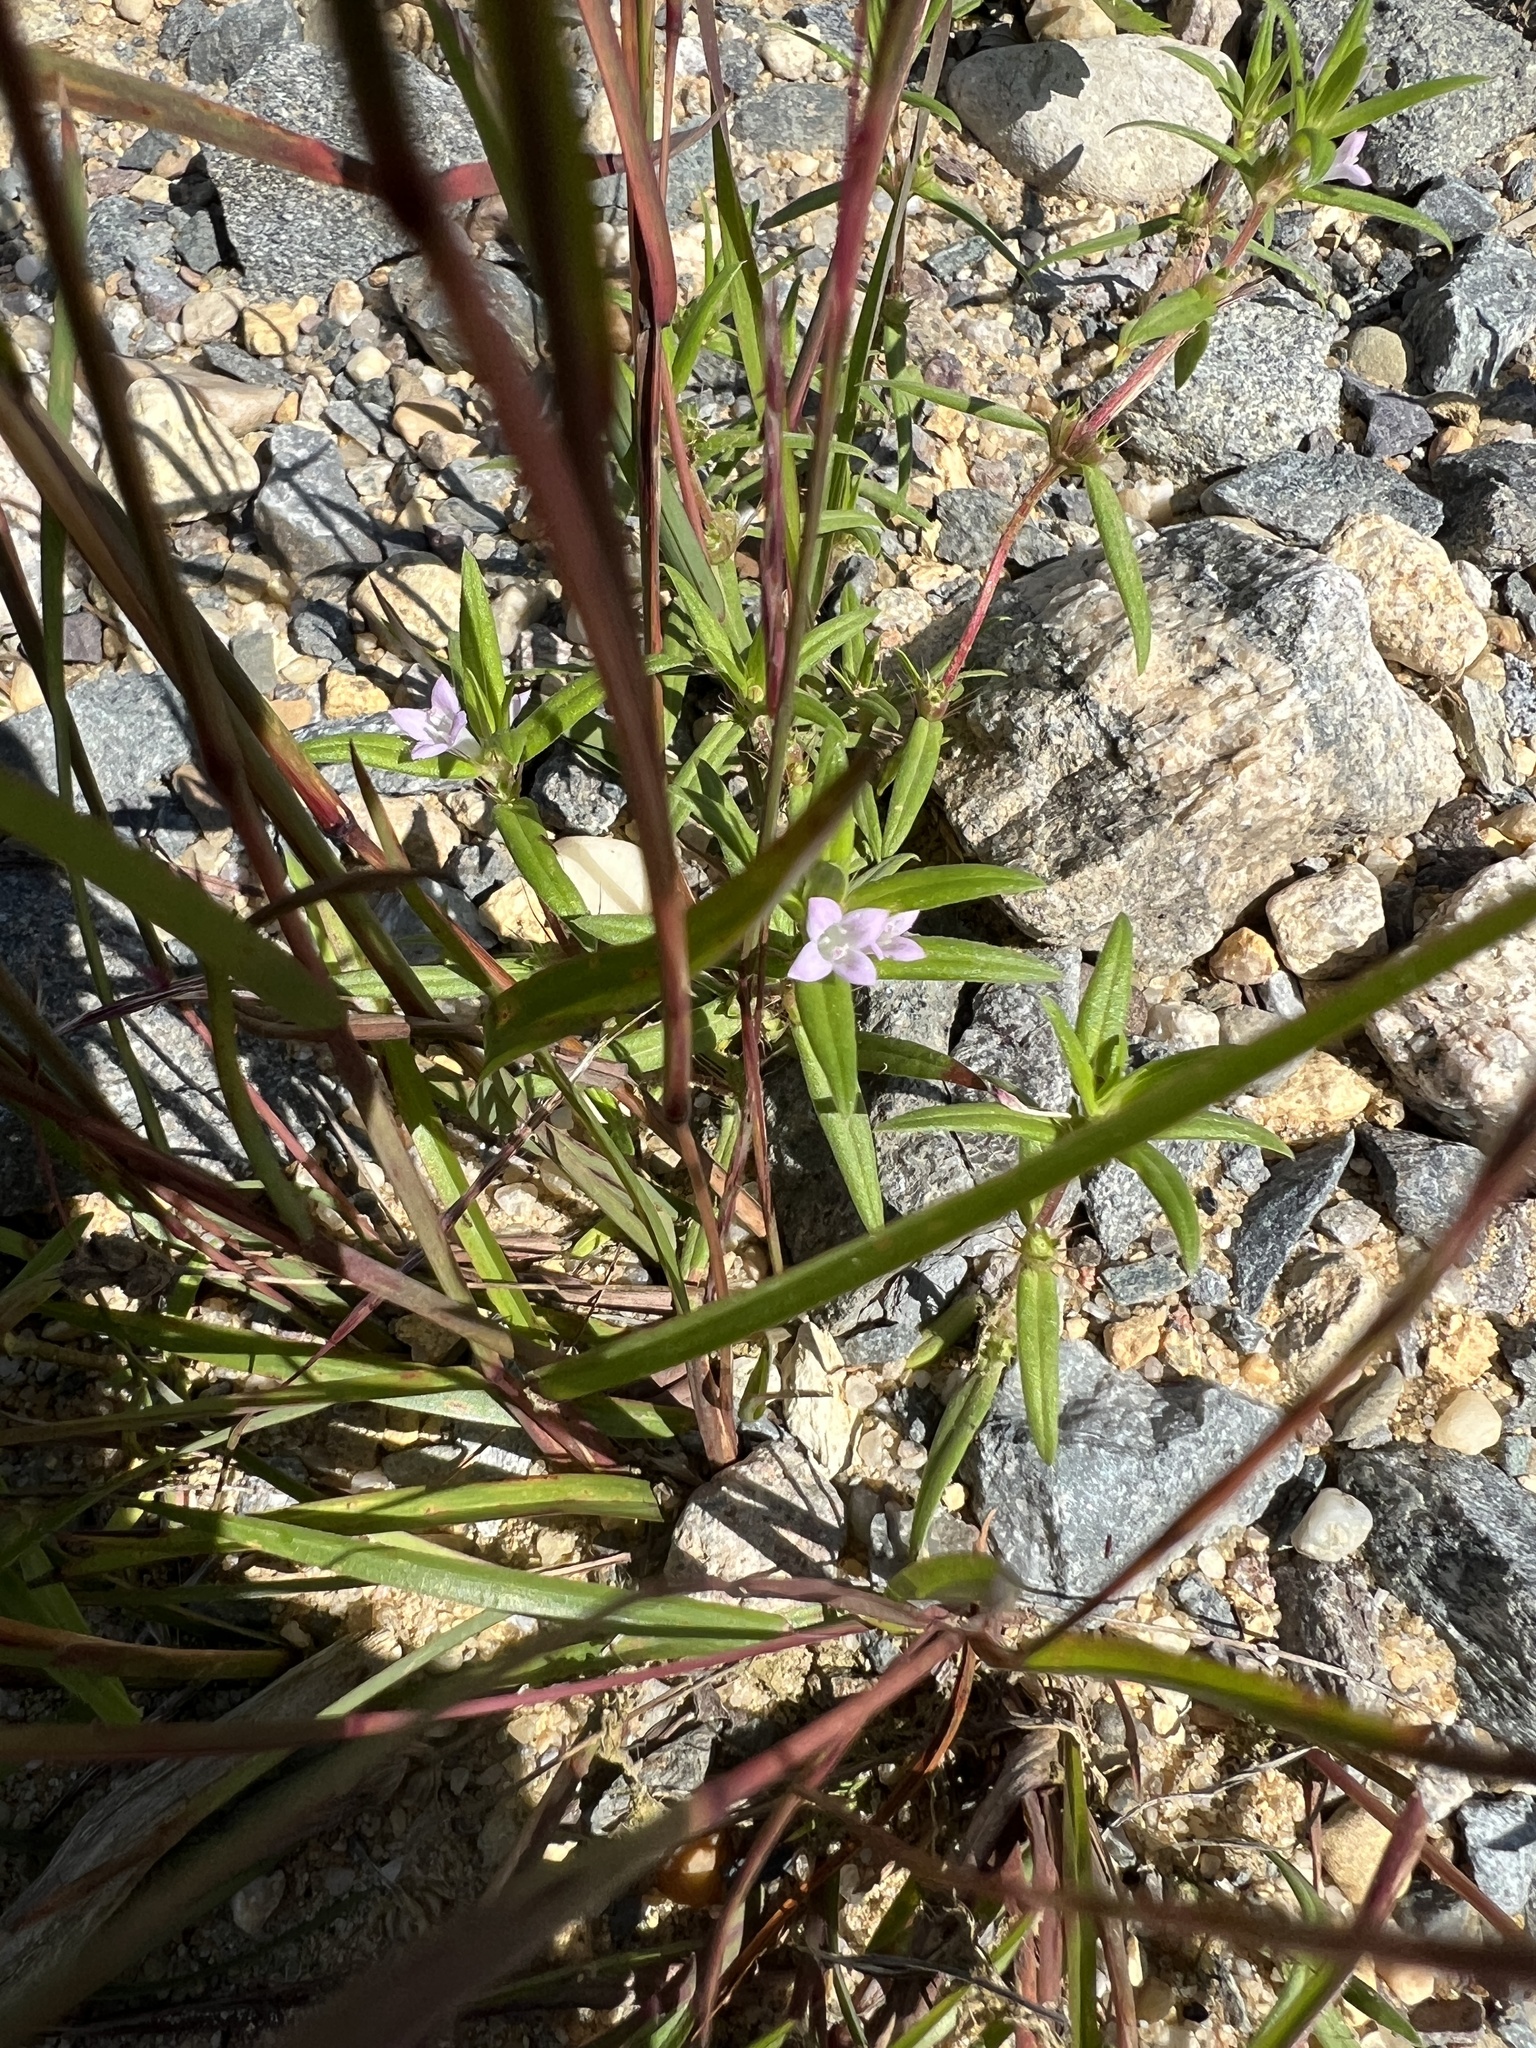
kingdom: Plantae
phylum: Tracheophyta
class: Magnoliopsida
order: Gentianales
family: Rubiaceae
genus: Hexasepalum
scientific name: Hexasepalum teres
